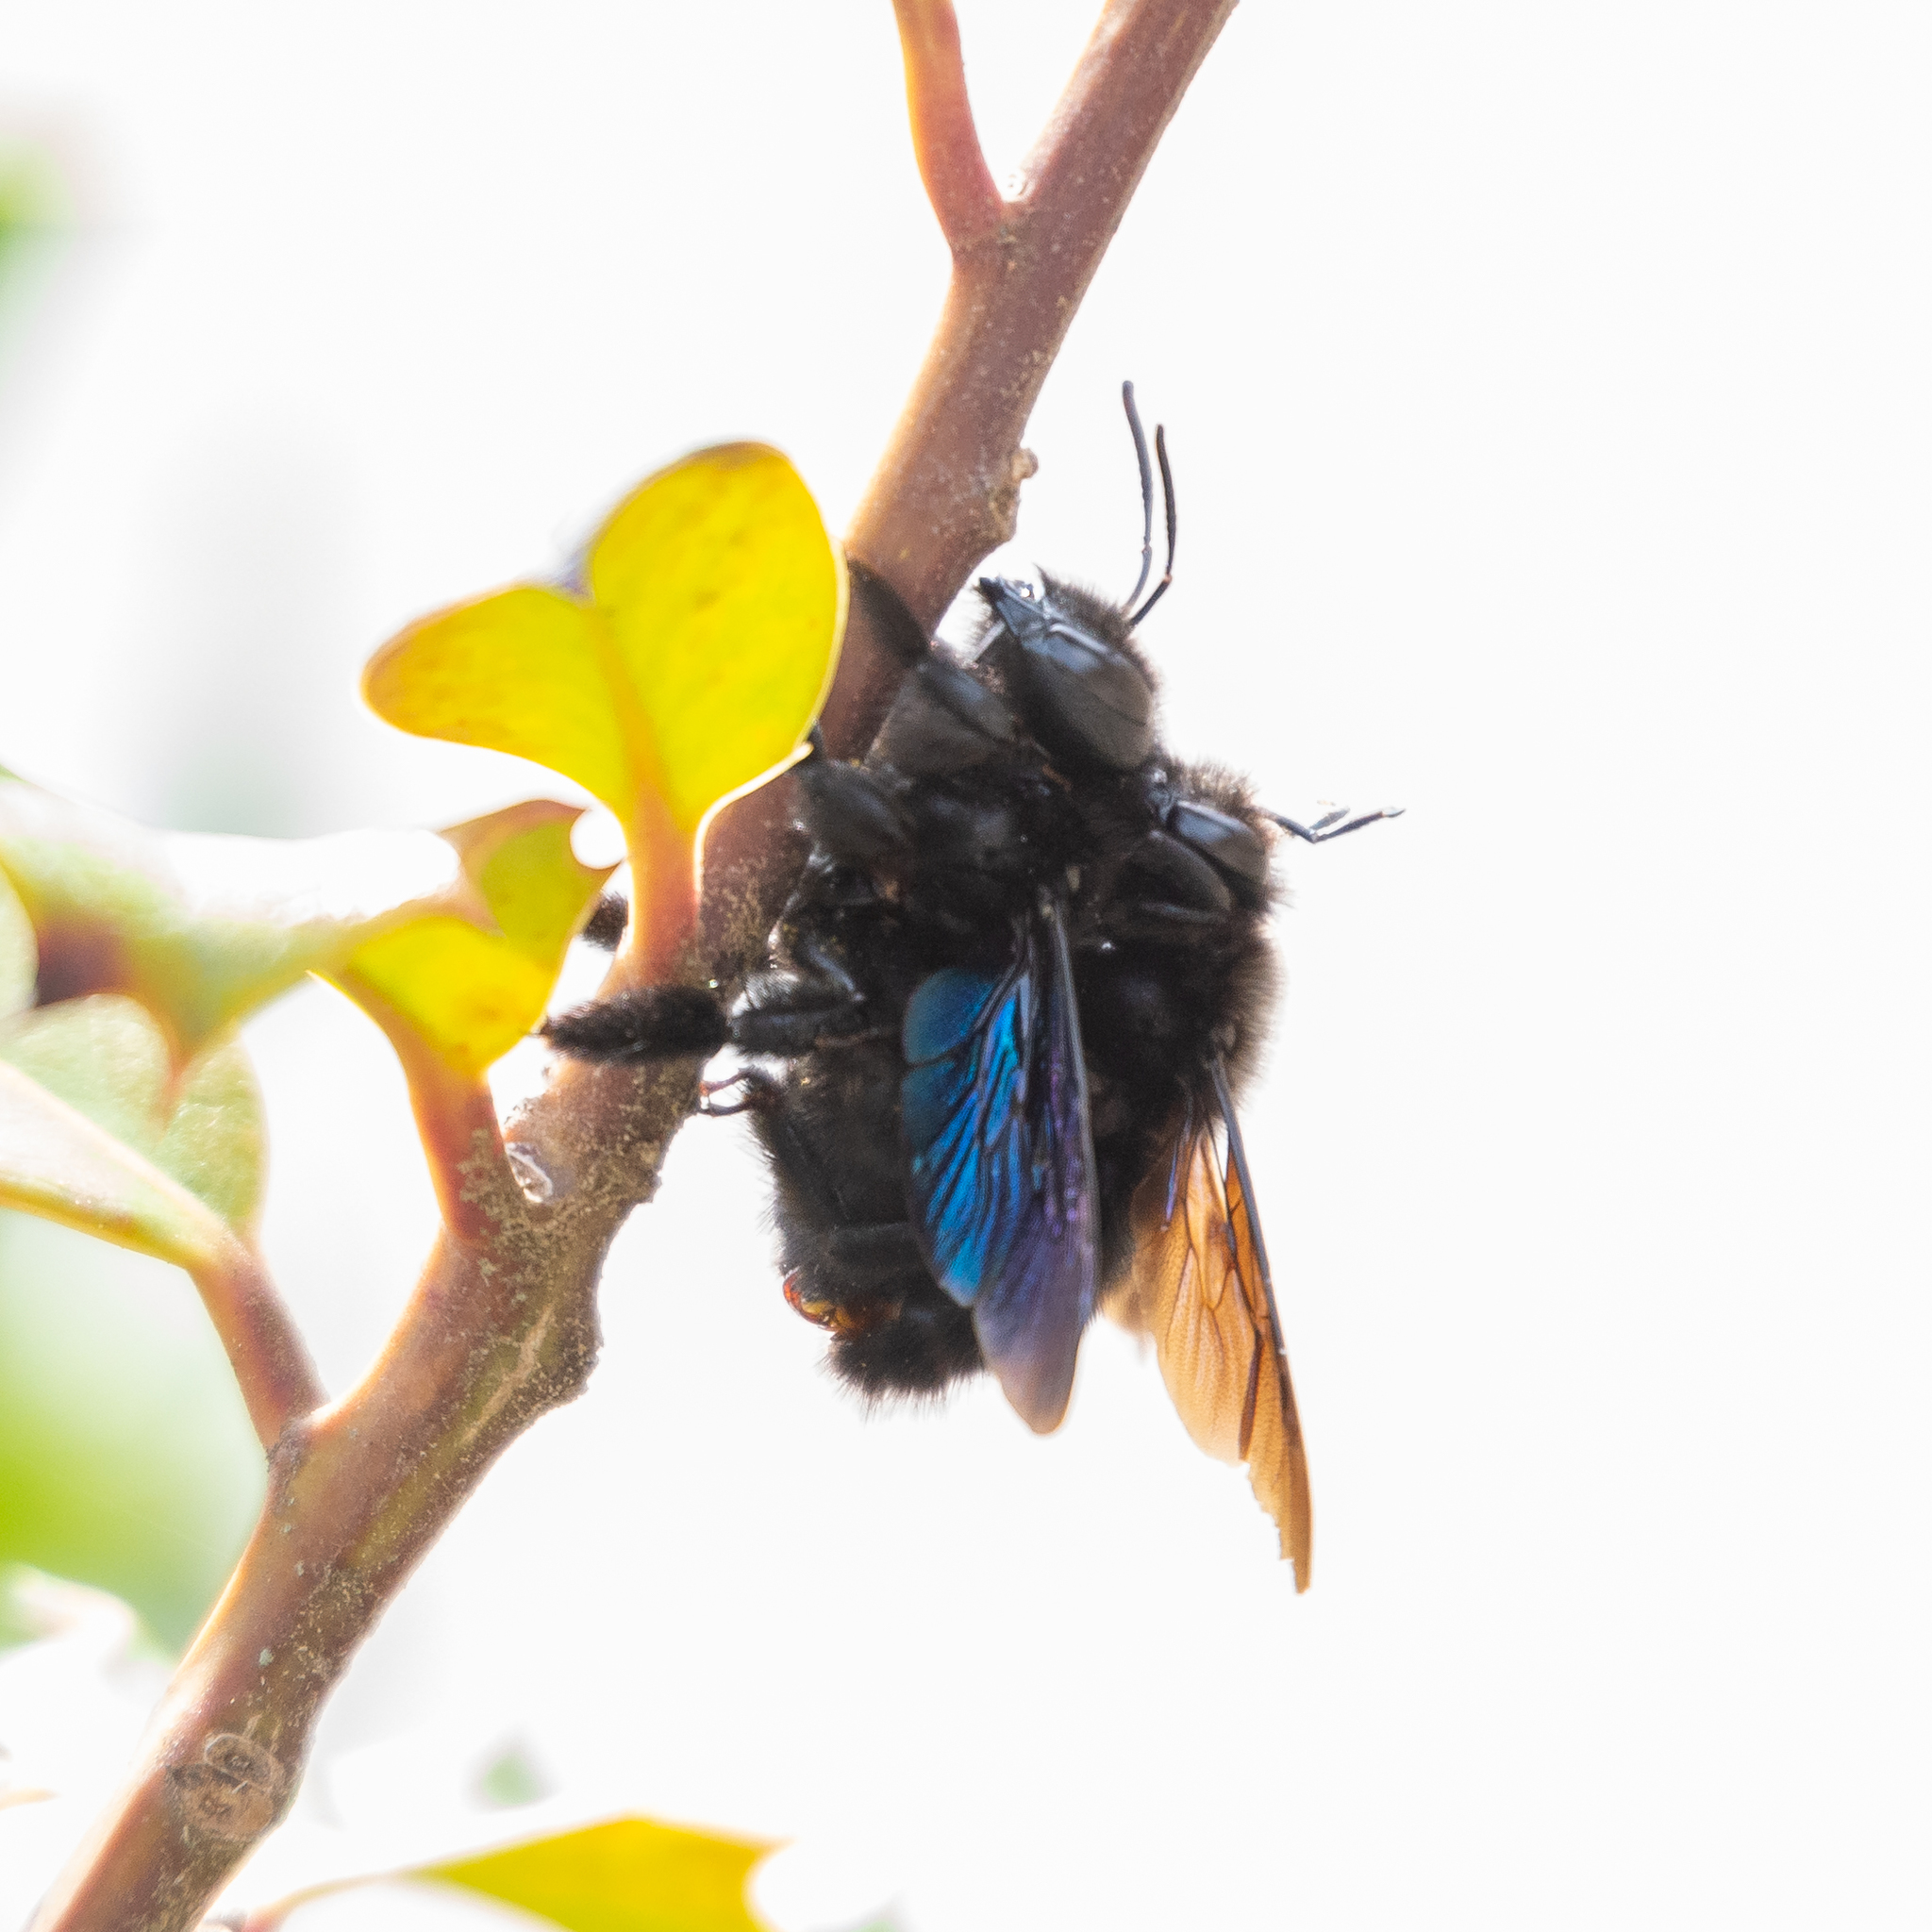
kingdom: Animalia
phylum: Arthropoda
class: Insecta
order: Hymenoptera
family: Apidae
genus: Xylocopa
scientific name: Xylocopa violacea
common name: Violet carpenter bee
